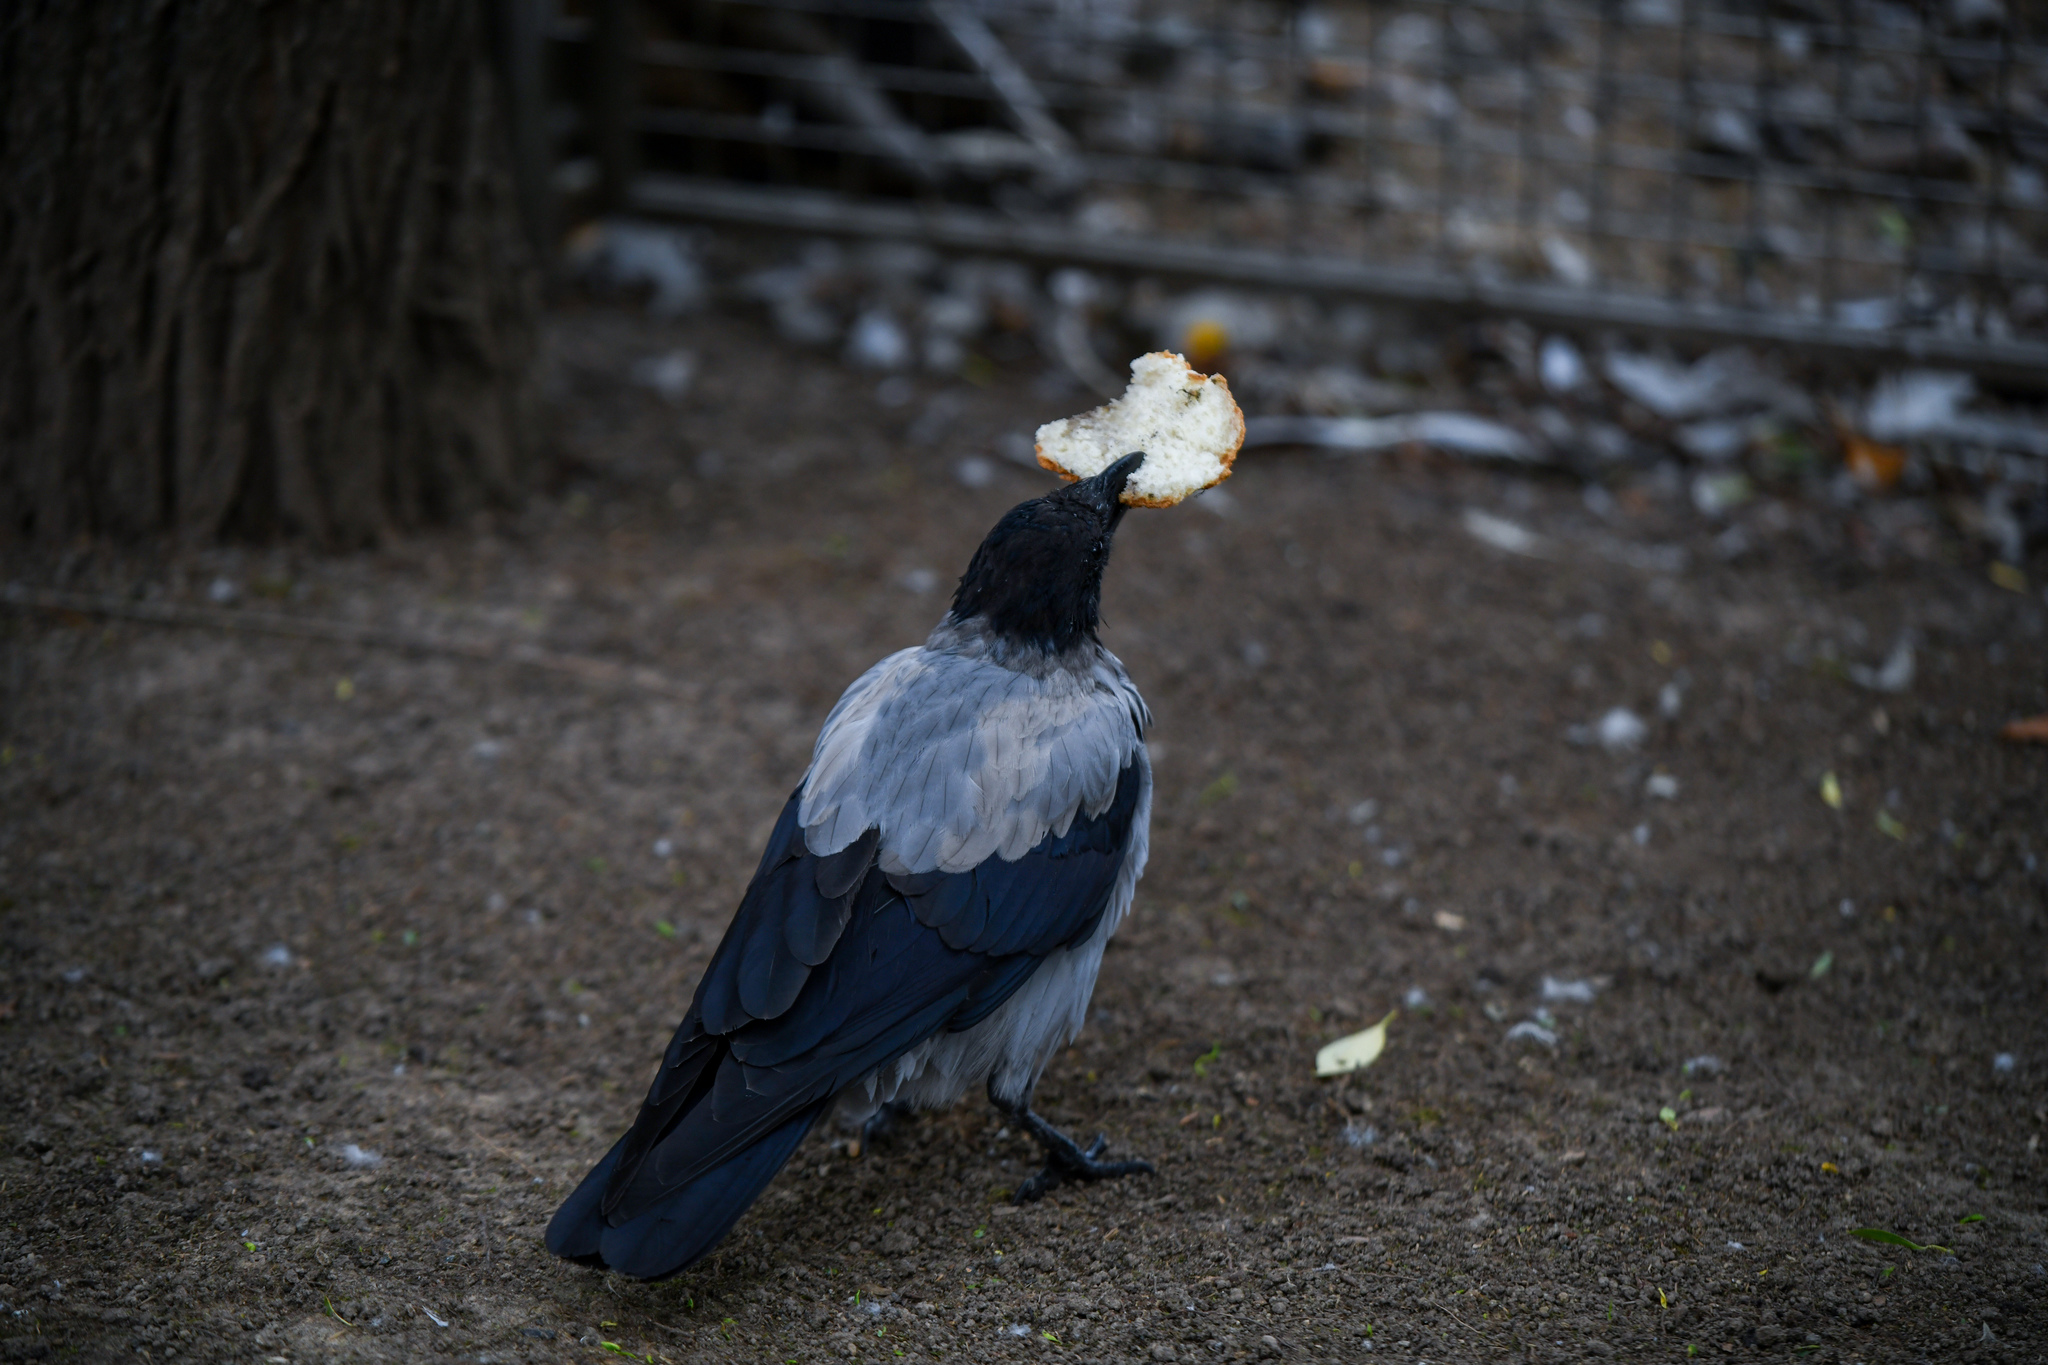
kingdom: Animalia
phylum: Chordata
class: Aves
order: Passeriformes
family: Corvidae
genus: Corvus
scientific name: Corvus cornix
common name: Hooded crow
